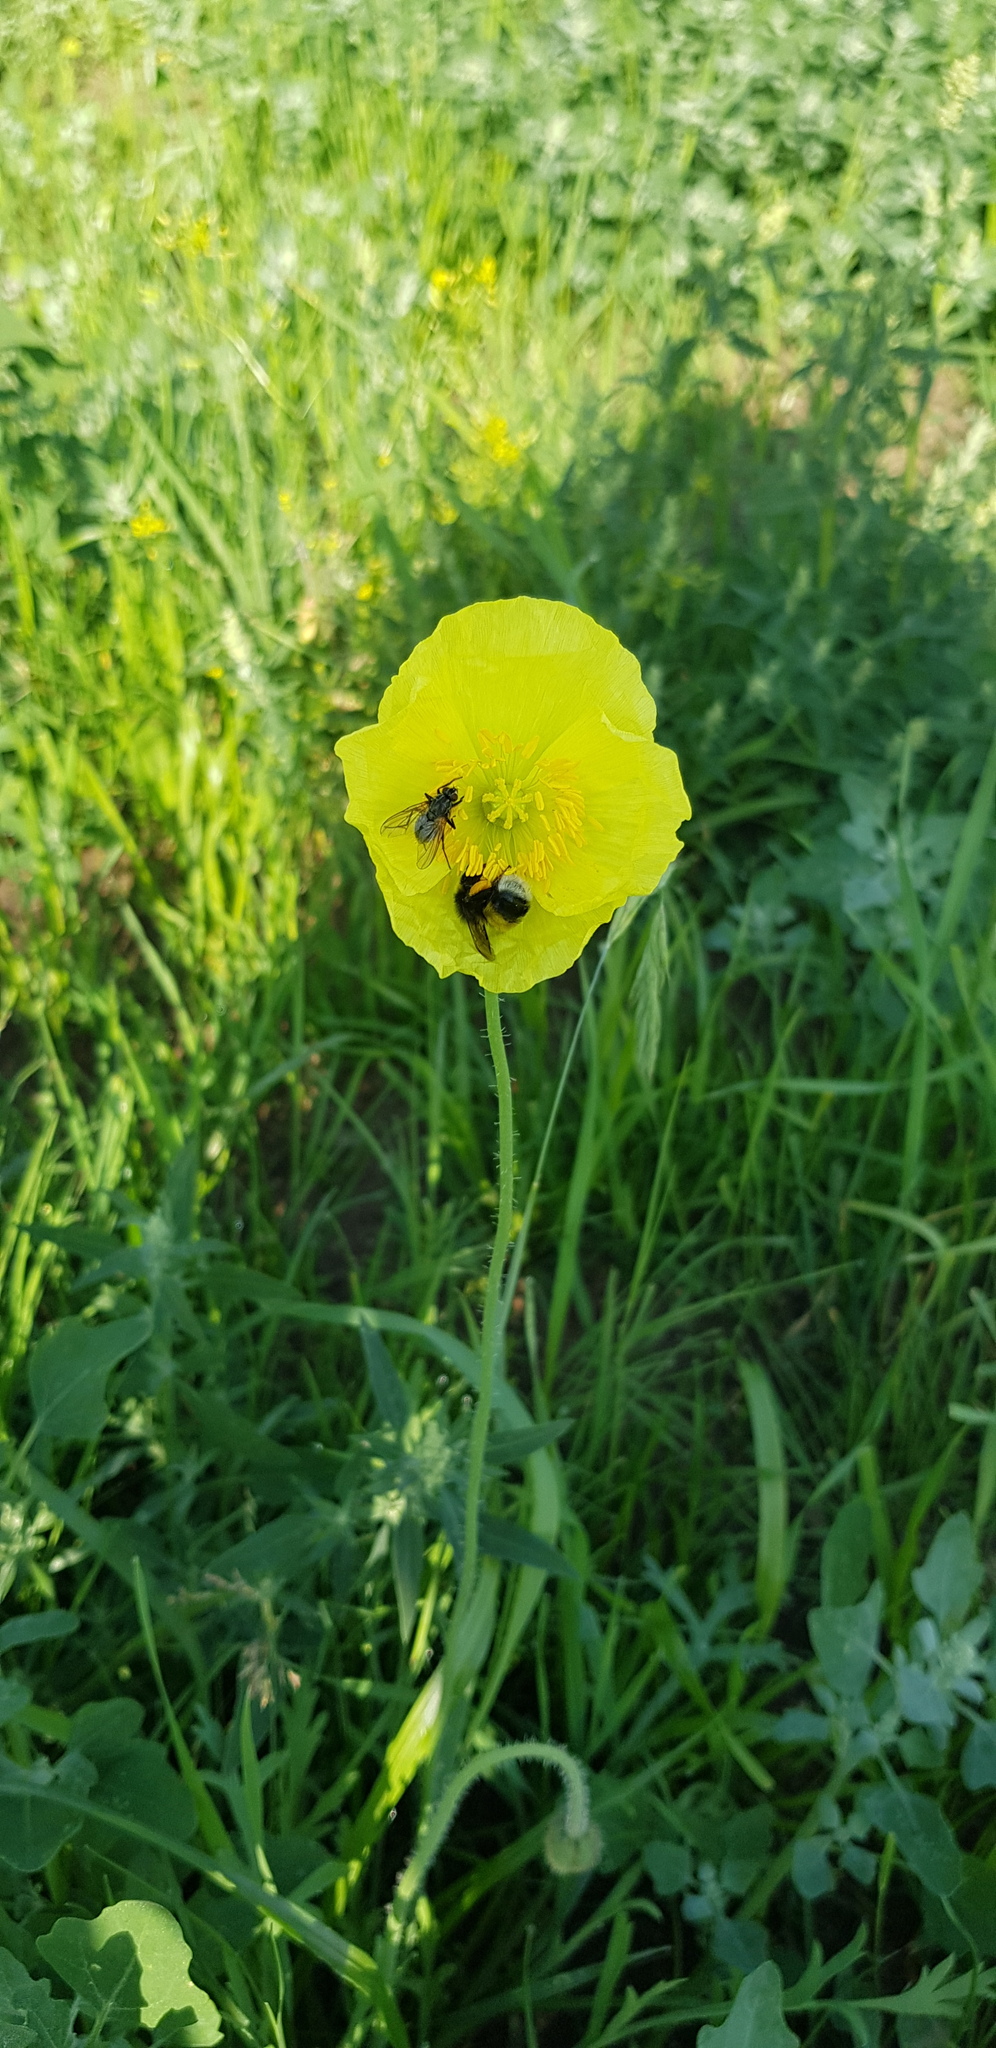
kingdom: Plantae
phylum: Tracheophyta
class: Magnoliopsida
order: Ranunculales
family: Papaveraceae
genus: Papaver
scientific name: Papaver nudicaule
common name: Arctic poppy
